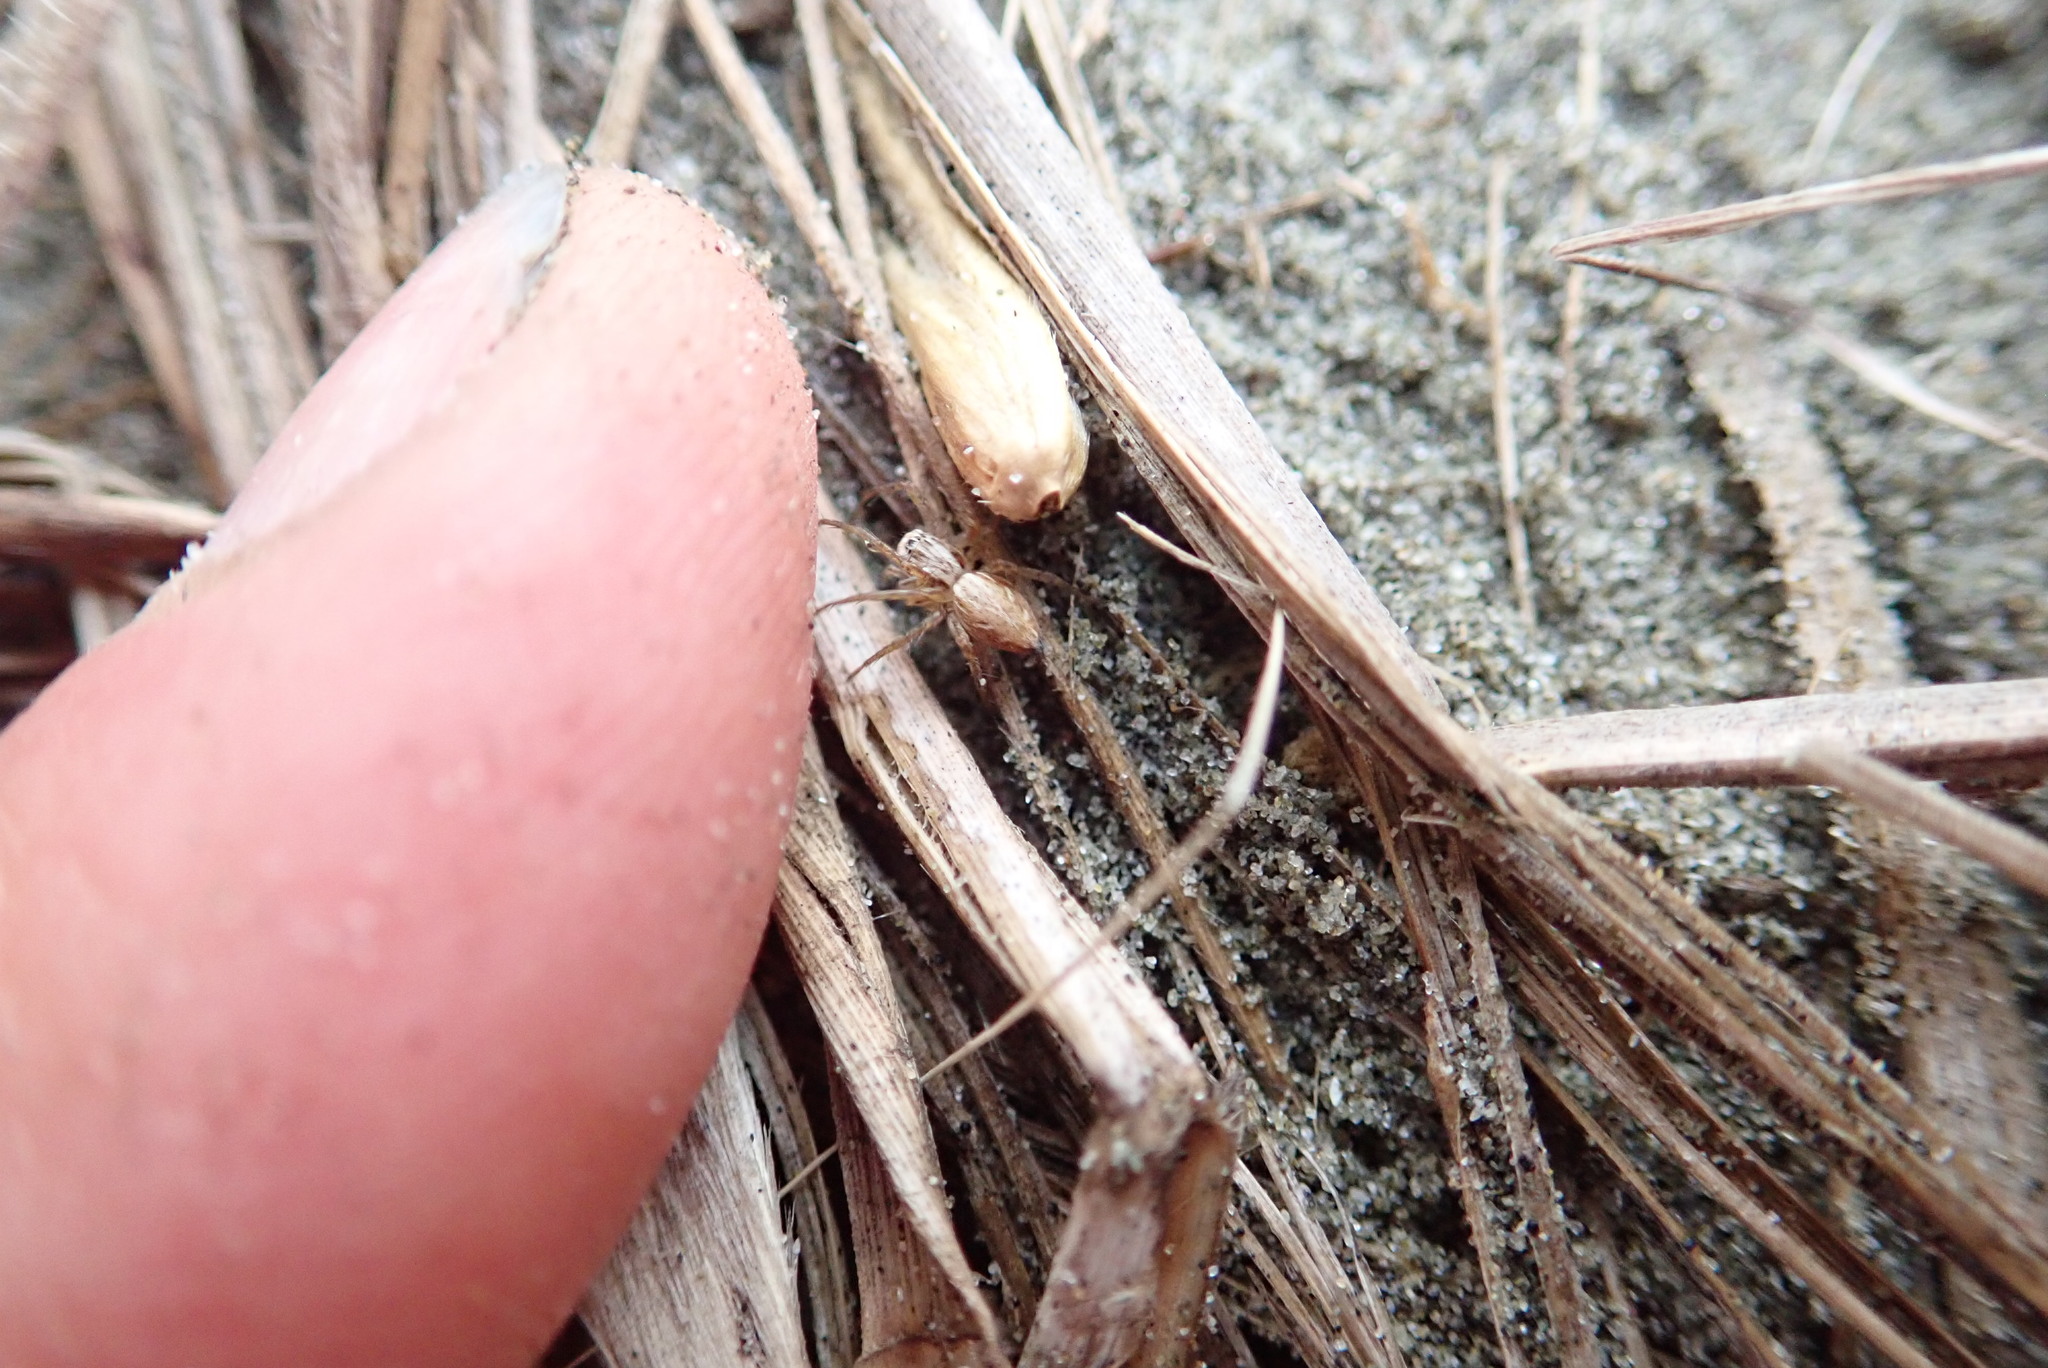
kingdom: Animalia
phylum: Arthropoda
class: Arachnida
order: Araneae
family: Oxyopidae
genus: Oxyopes
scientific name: Oxyopes gracilipes
